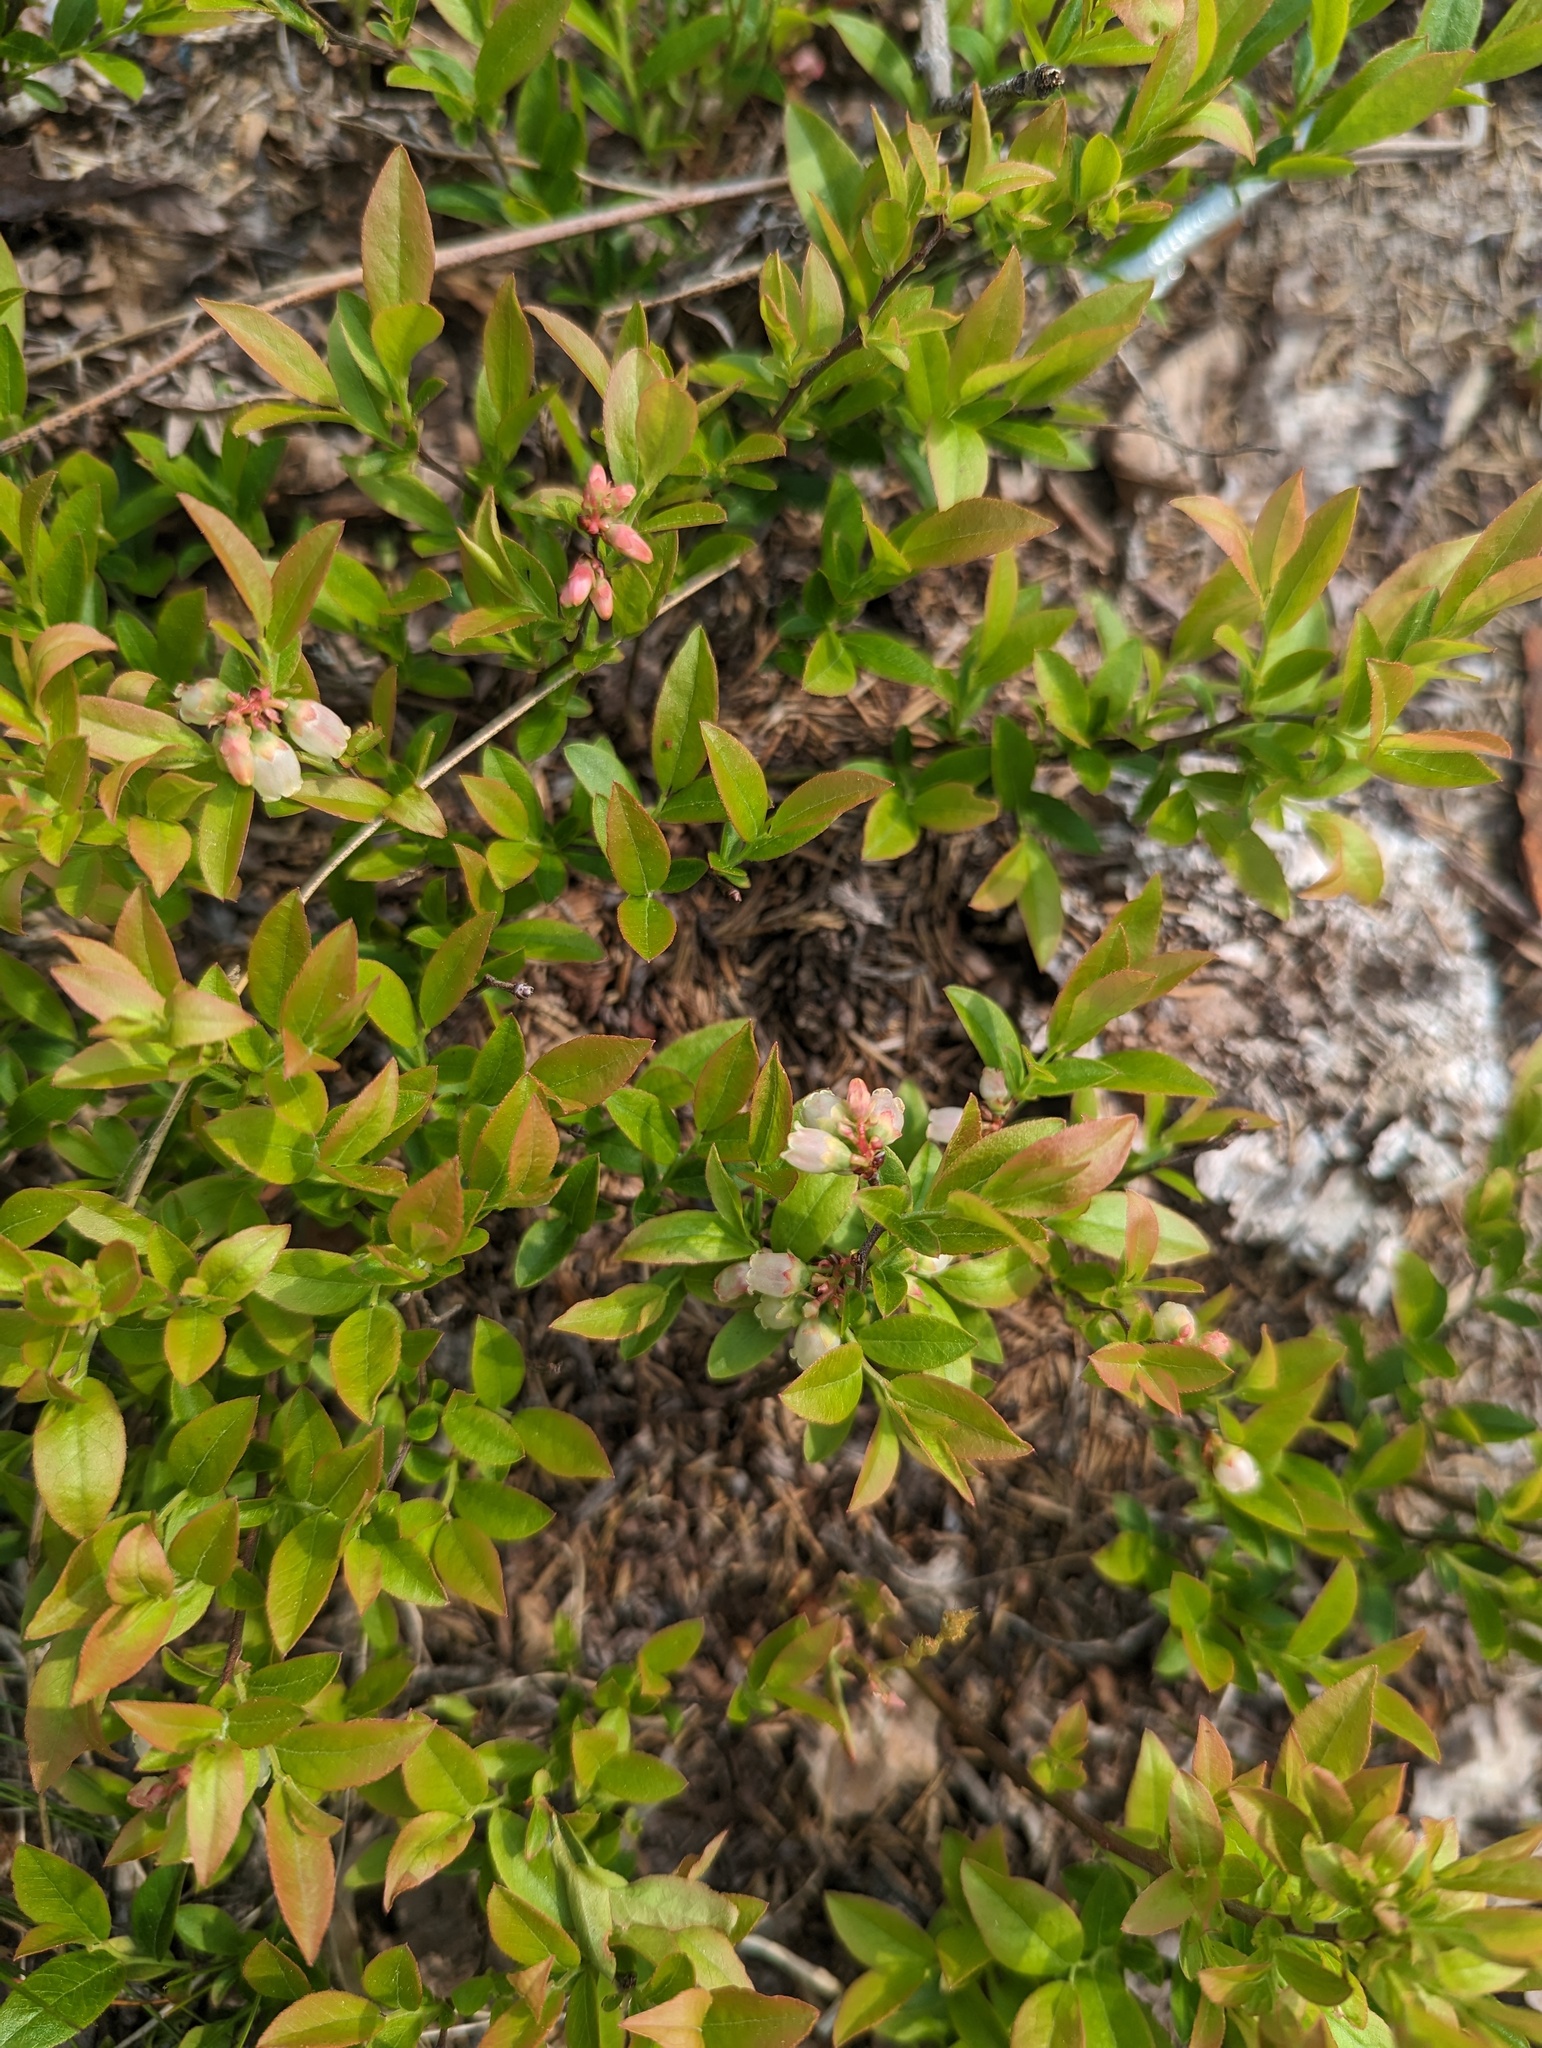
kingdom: Plantae
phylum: Tracheophyta
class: Magnoliopsida
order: Ericales
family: Ericaceae
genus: Vaccinium
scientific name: Vaccinium angustifolium
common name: Early lowbush blueberry
